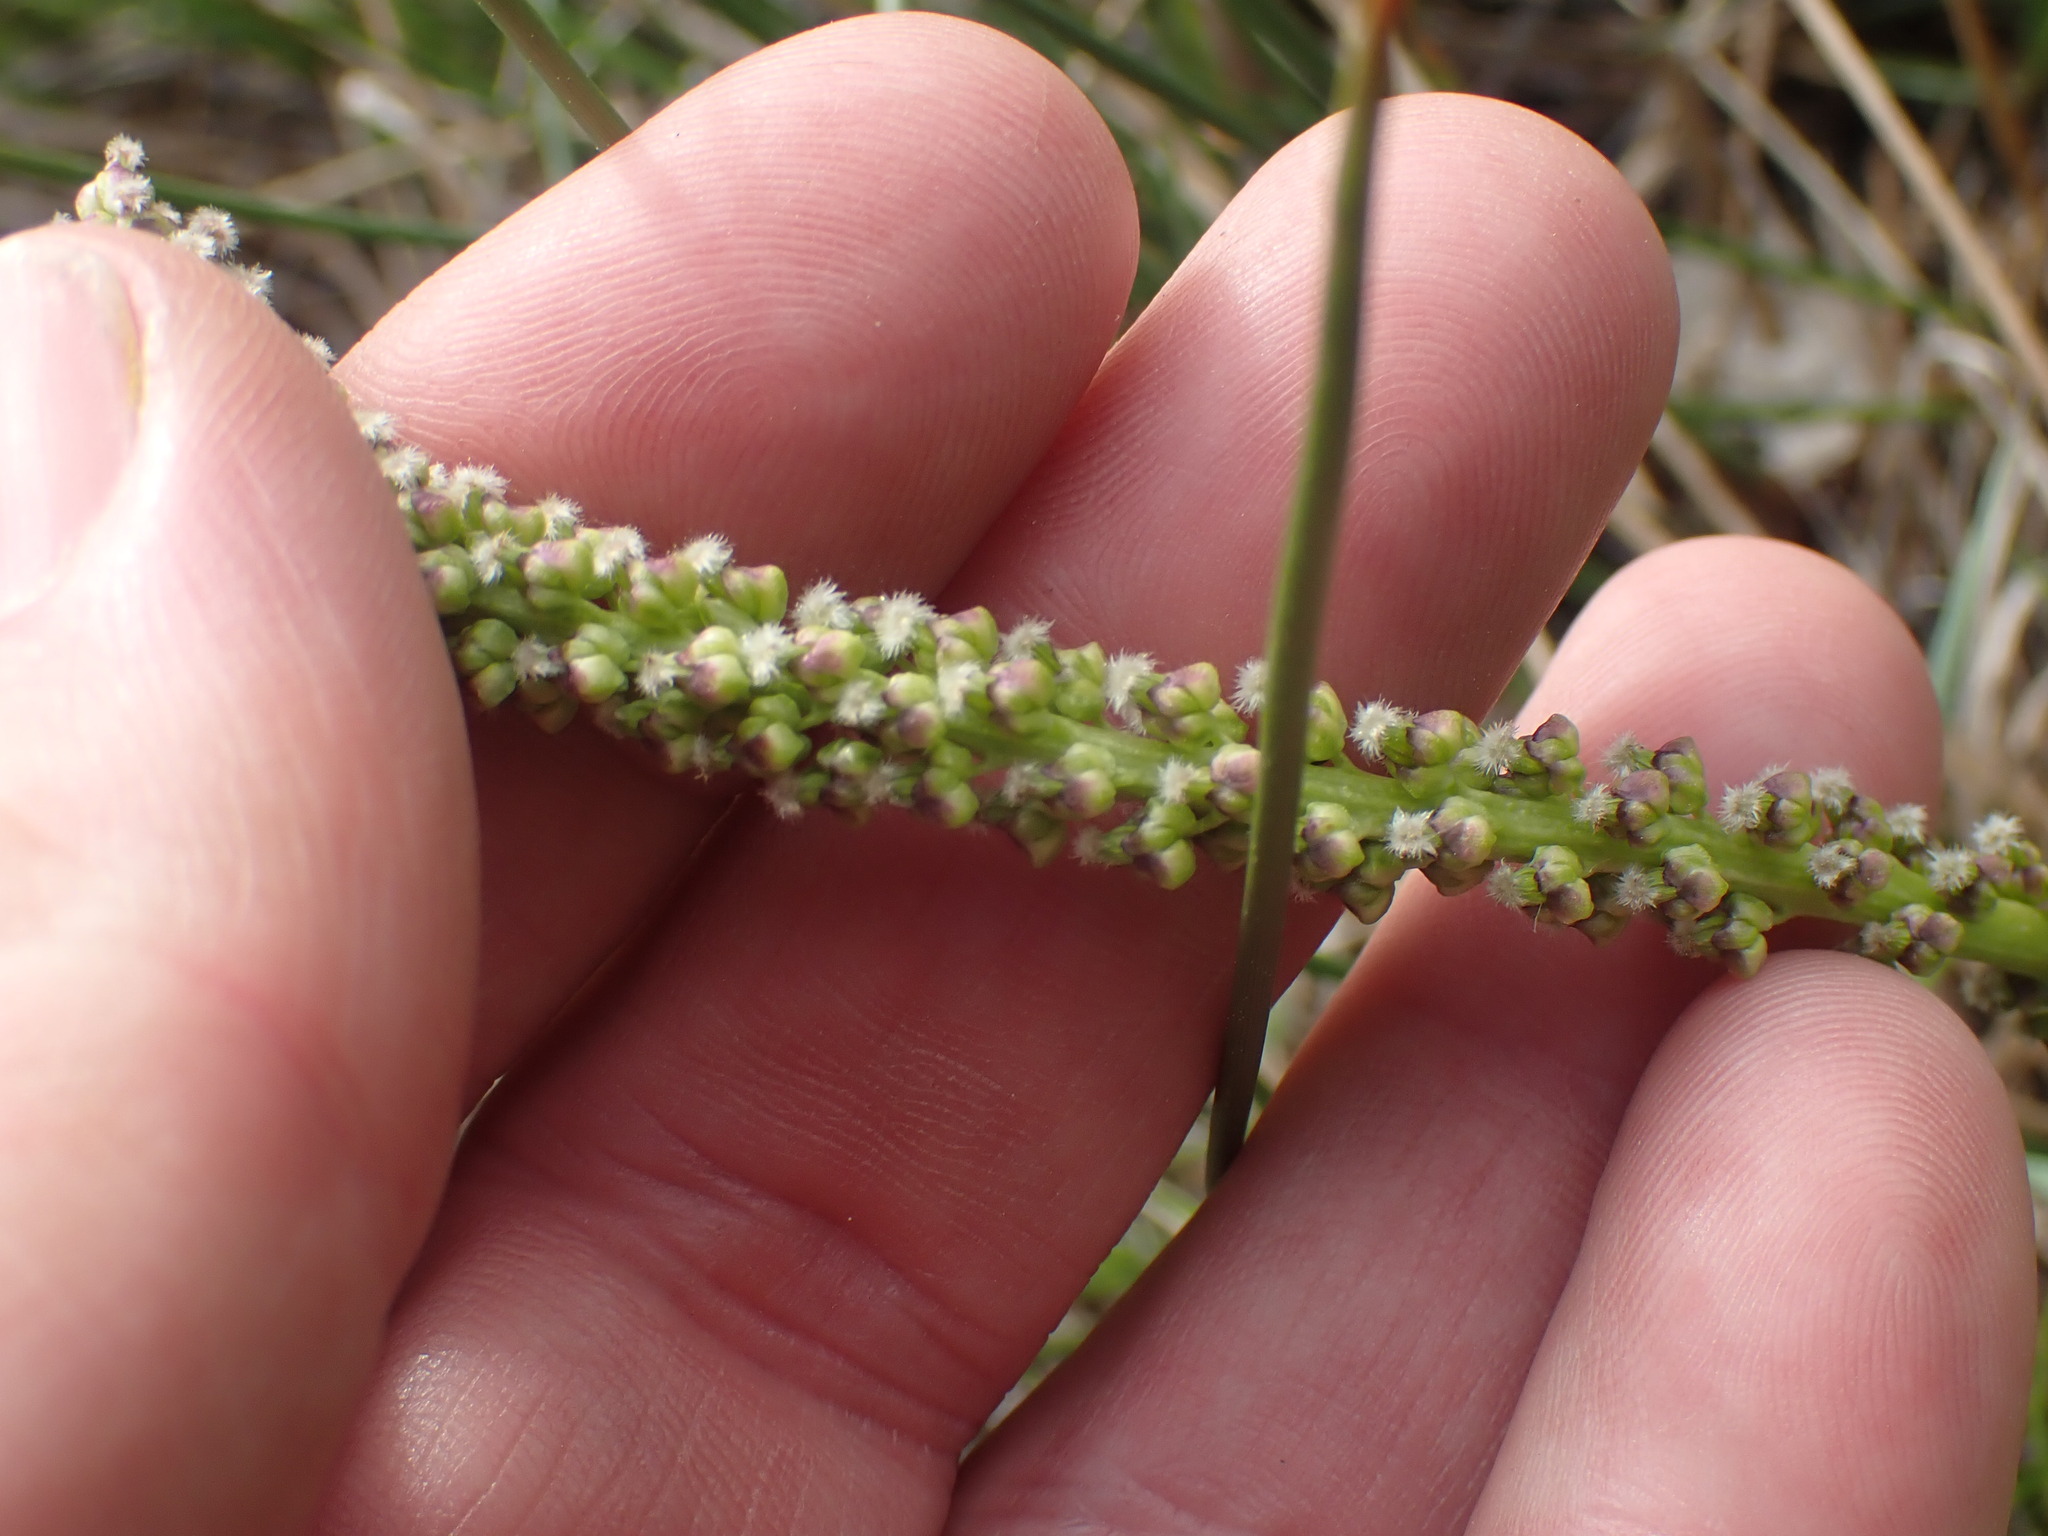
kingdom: Plantae
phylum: Tracheophyta
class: Liliopsida
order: Alismatales
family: Juncaginaceae
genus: Triglochin
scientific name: Triglochin maritima
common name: Sea arrowgrass
